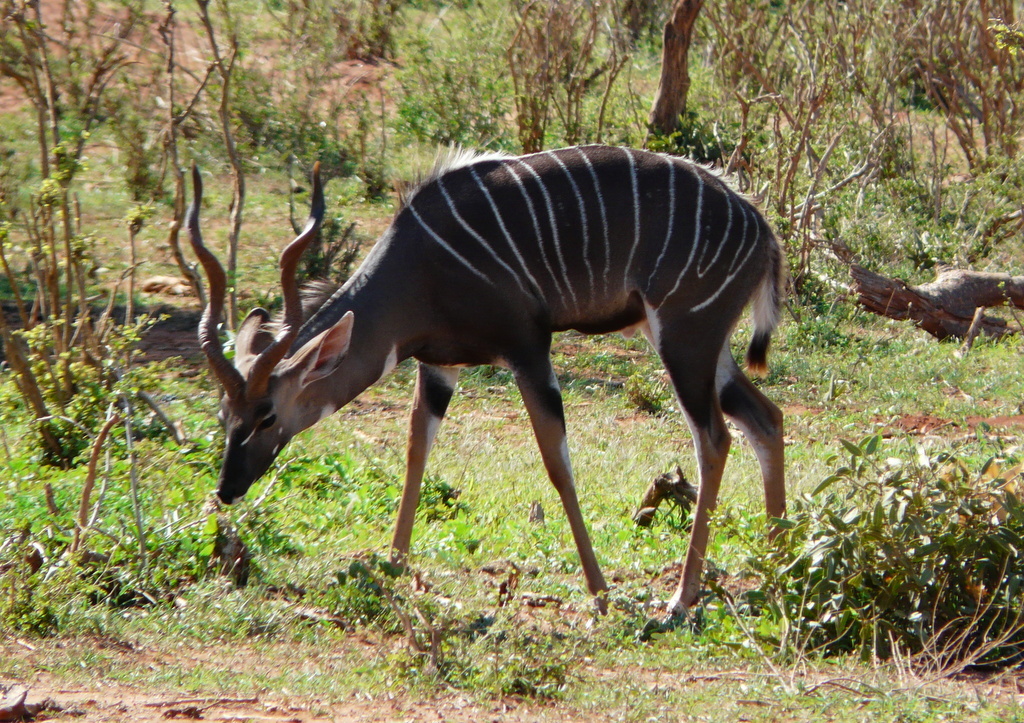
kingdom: Animalia
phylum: Chordata
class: Mammalia
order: Artiodactyla
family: Bovidae
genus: Tragelaphus
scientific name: Tragelaphus imberbis
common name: Lesser kudu
